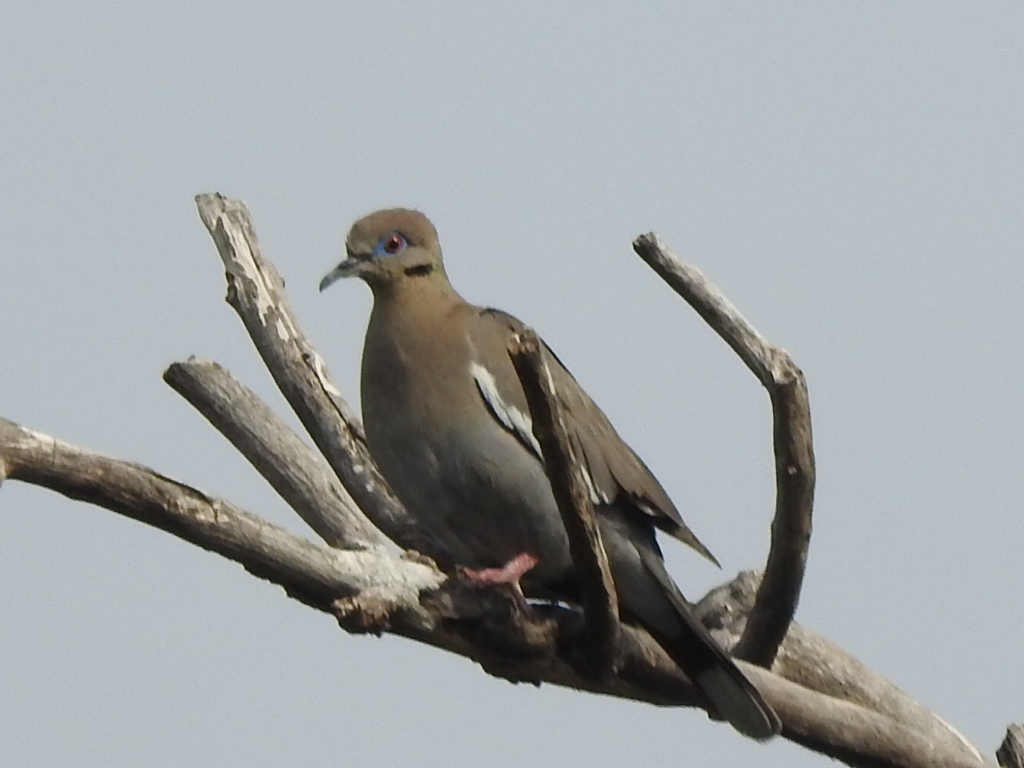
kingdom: Animalia
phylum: Chordata
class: Aves
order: Columbiformes
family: Columbidae
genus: Zenaida
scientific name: Zenaida asiatica
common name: White-winged dove
